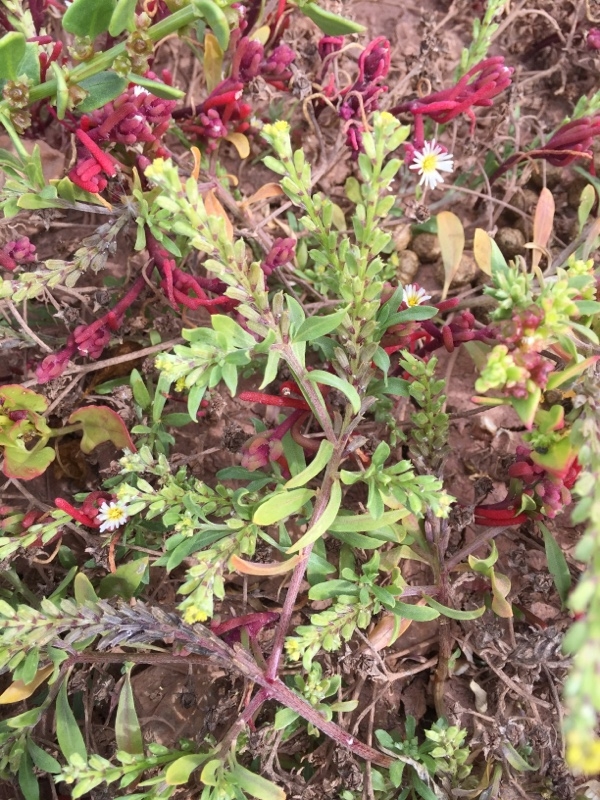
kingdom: Plantae
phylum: Tracheophyta
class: Magnoliopsida
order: Brassicales
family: Brassicaceae
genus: Notoceras
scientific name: Notoceras bicorne
